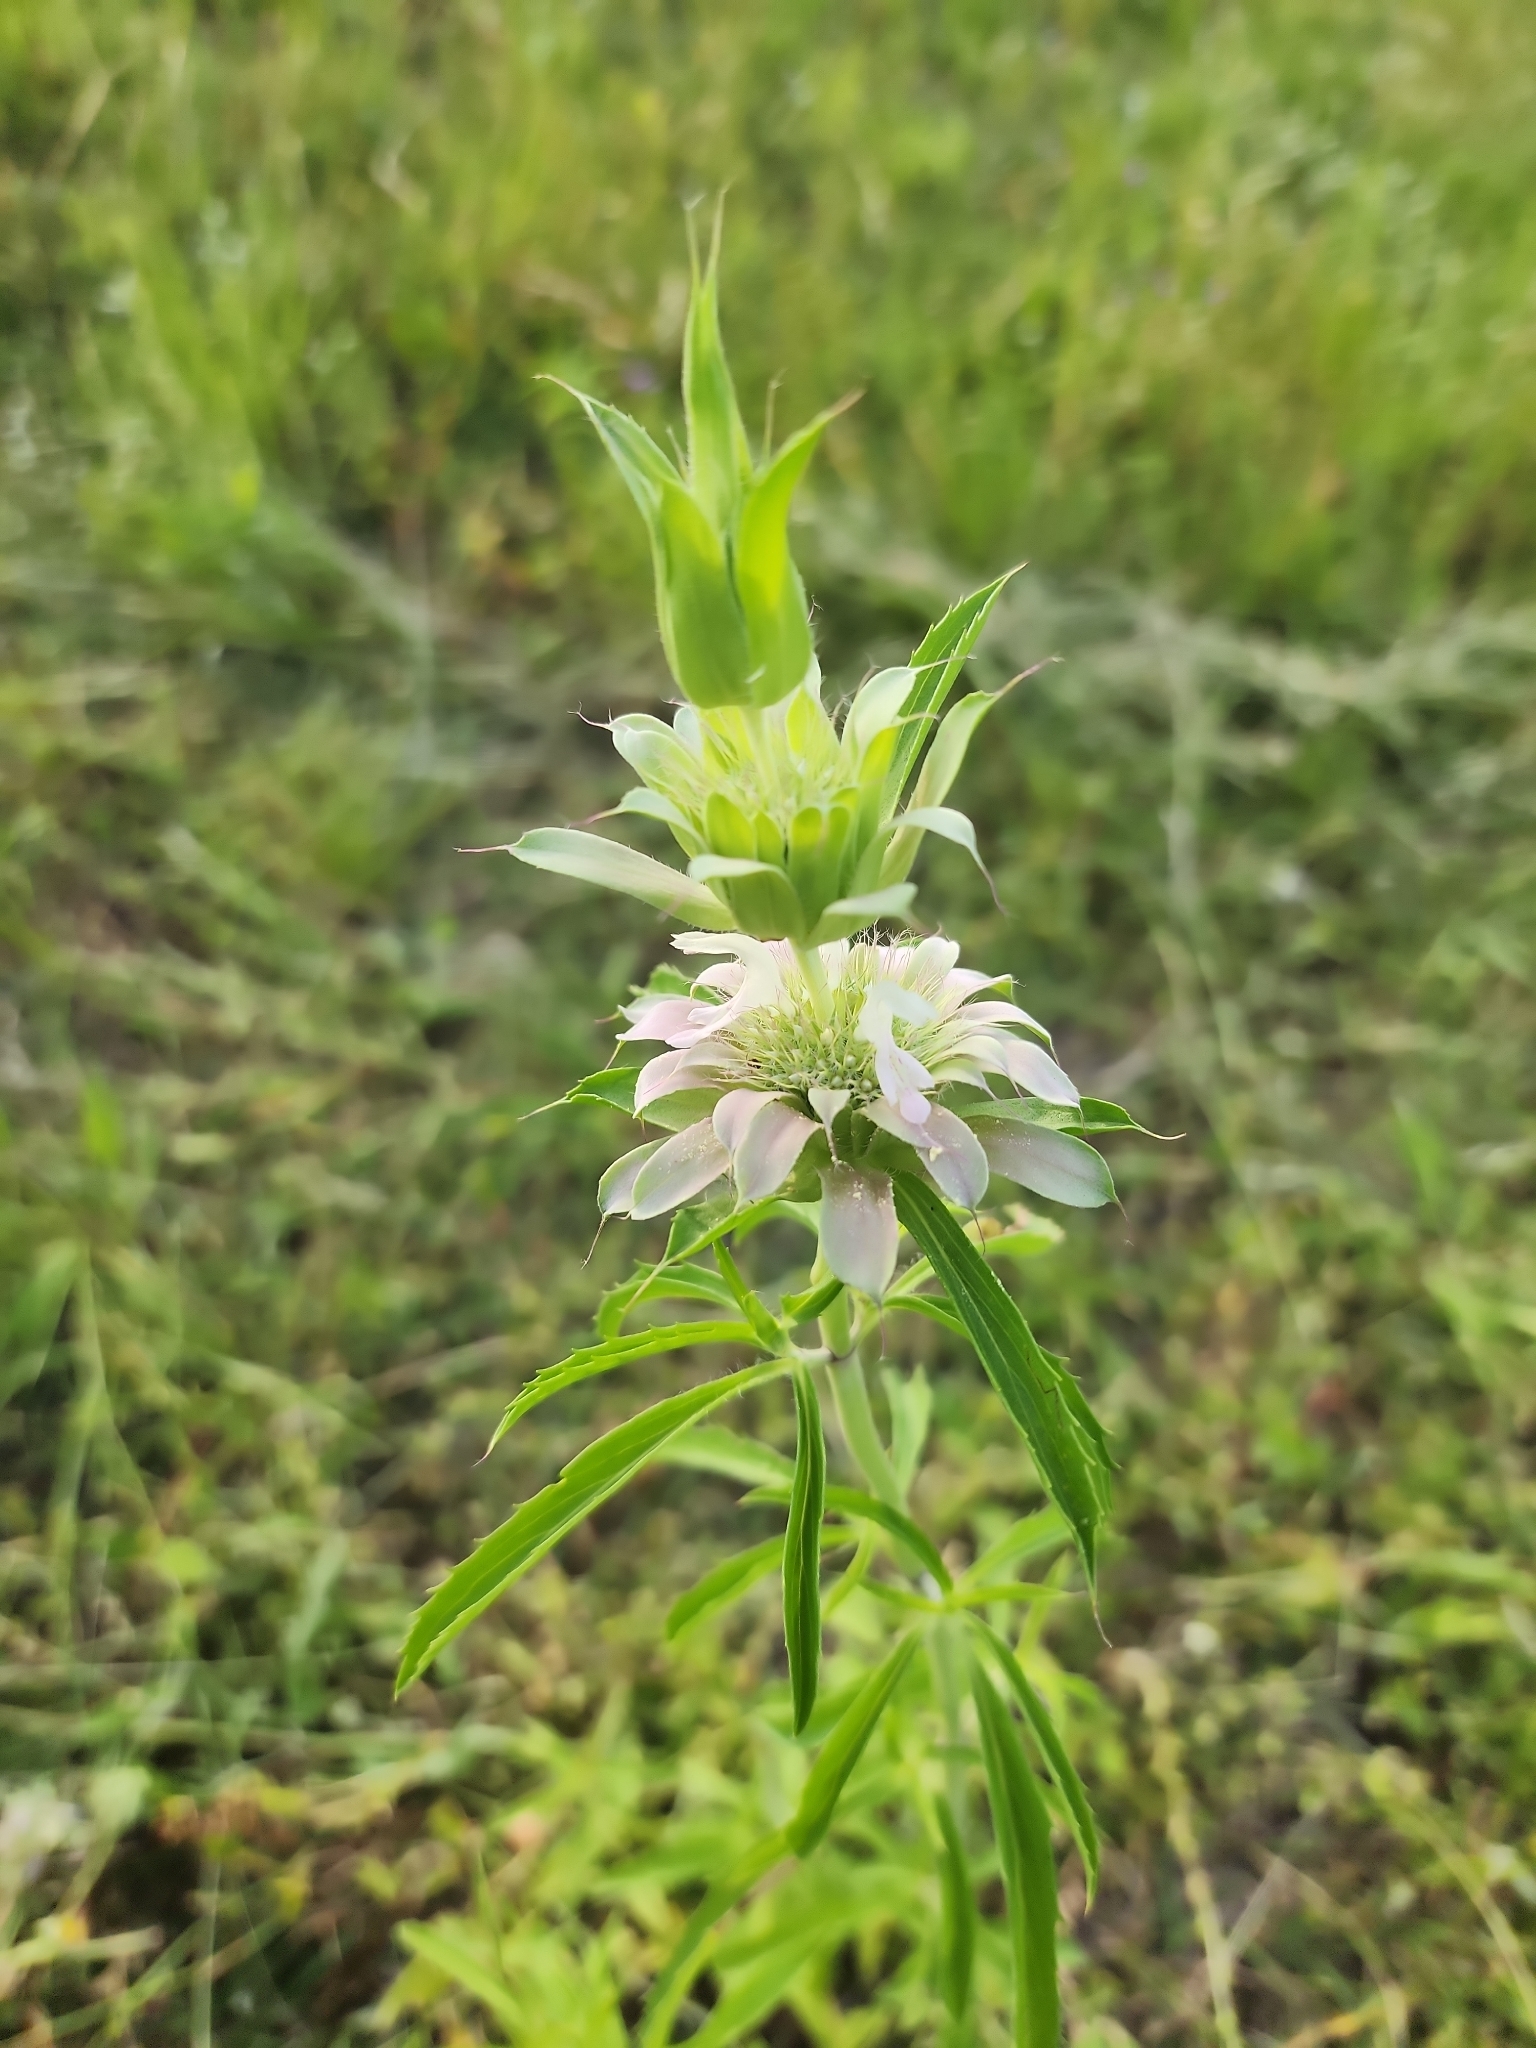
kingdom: Plantae
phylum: Tracheophyta
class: Magnoliopsida
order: Lamiales
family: Lamiaceae
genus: Monarda
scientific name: Monarda citriodora
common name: Lemon beebalm
